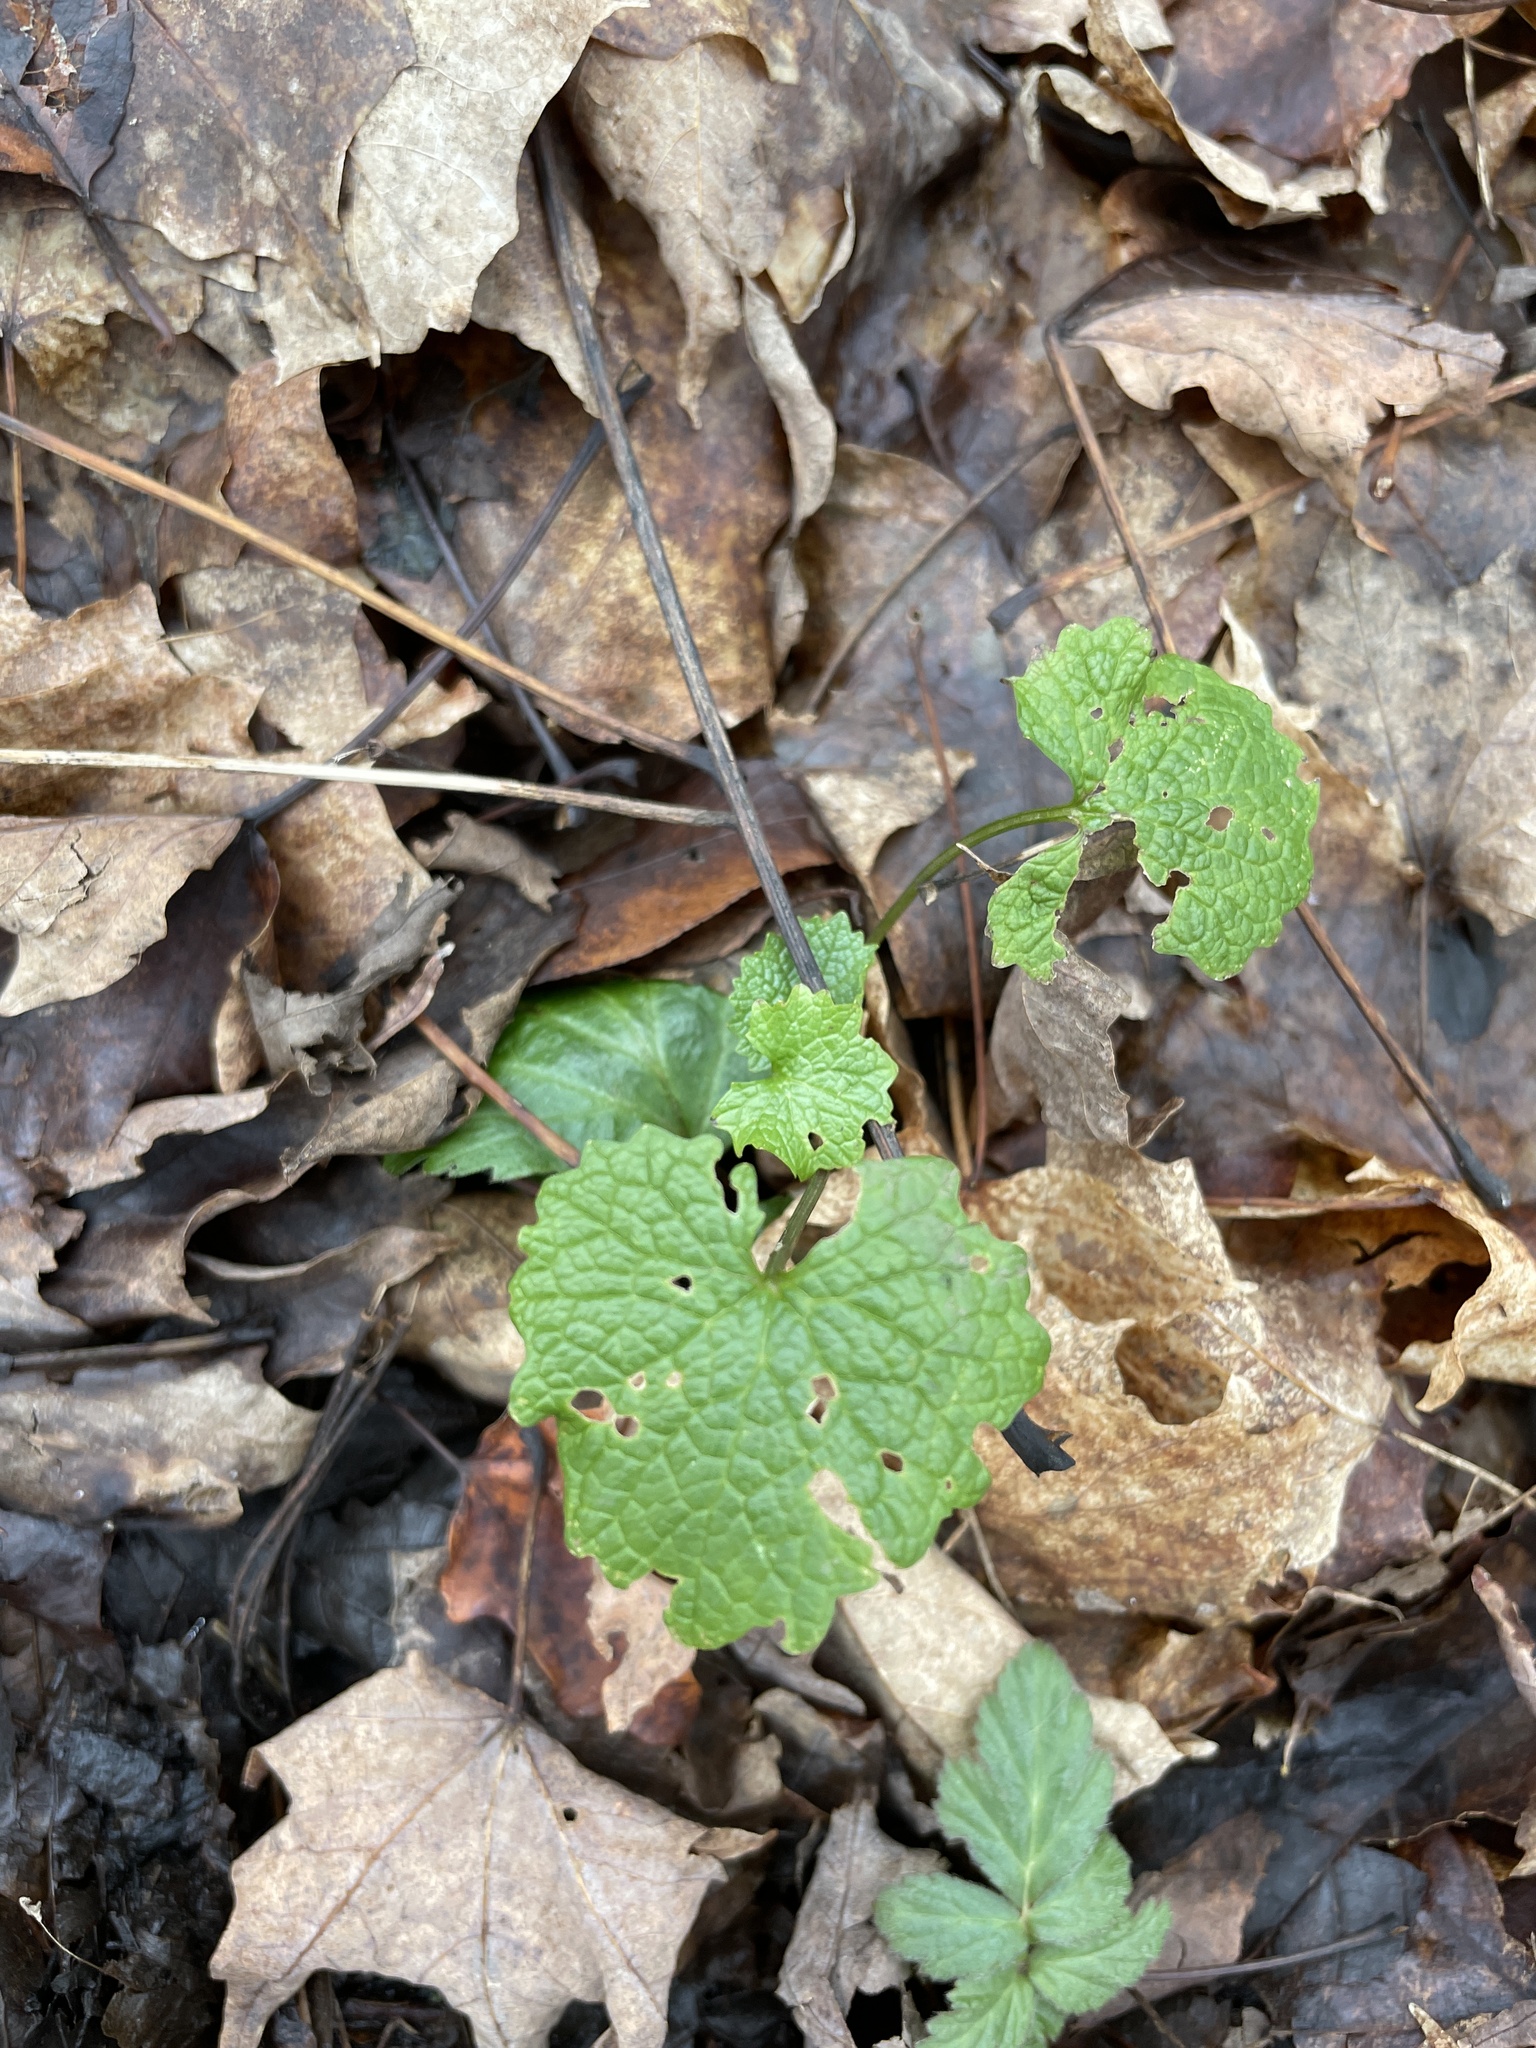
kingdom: Plantae
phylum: Tracheophyta
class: Magnoliopsida
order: Brassicales
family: Brassicaceae
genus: Alliaria
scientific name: Alliaria petiolata
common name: Garlic mustard
